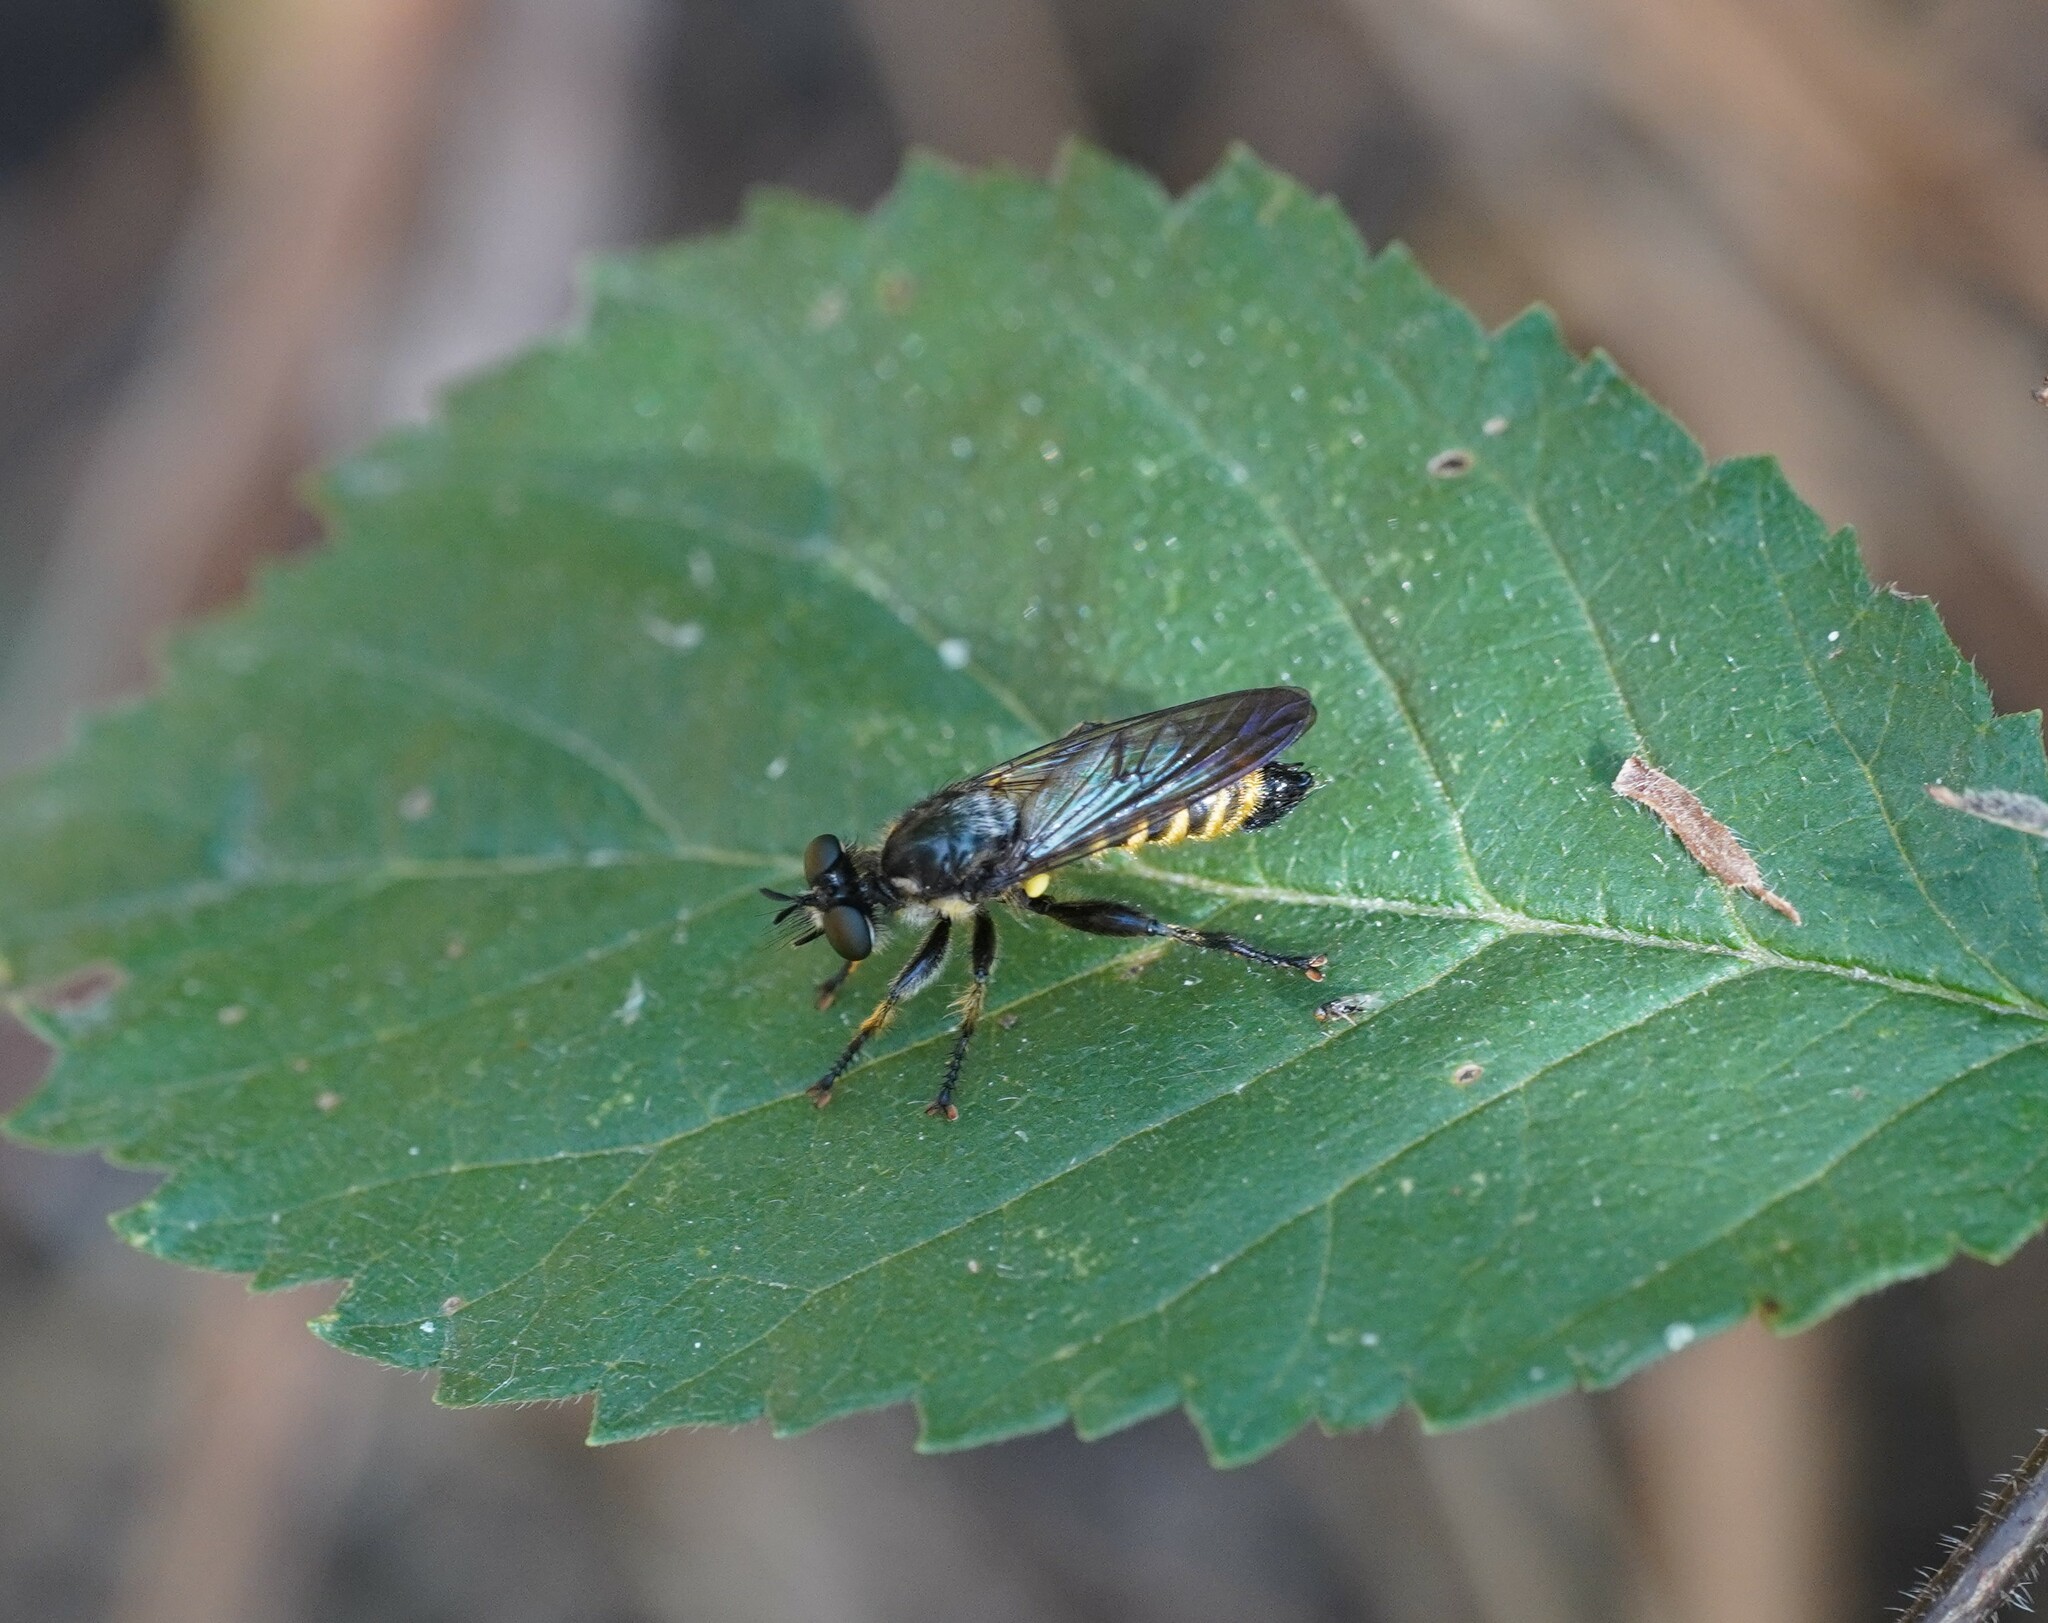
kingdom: Animalia
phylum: Arthropoda
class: Insecta
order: Diptera
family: Asilidae
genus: Lamyra
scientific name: Lamyra fimbriata
